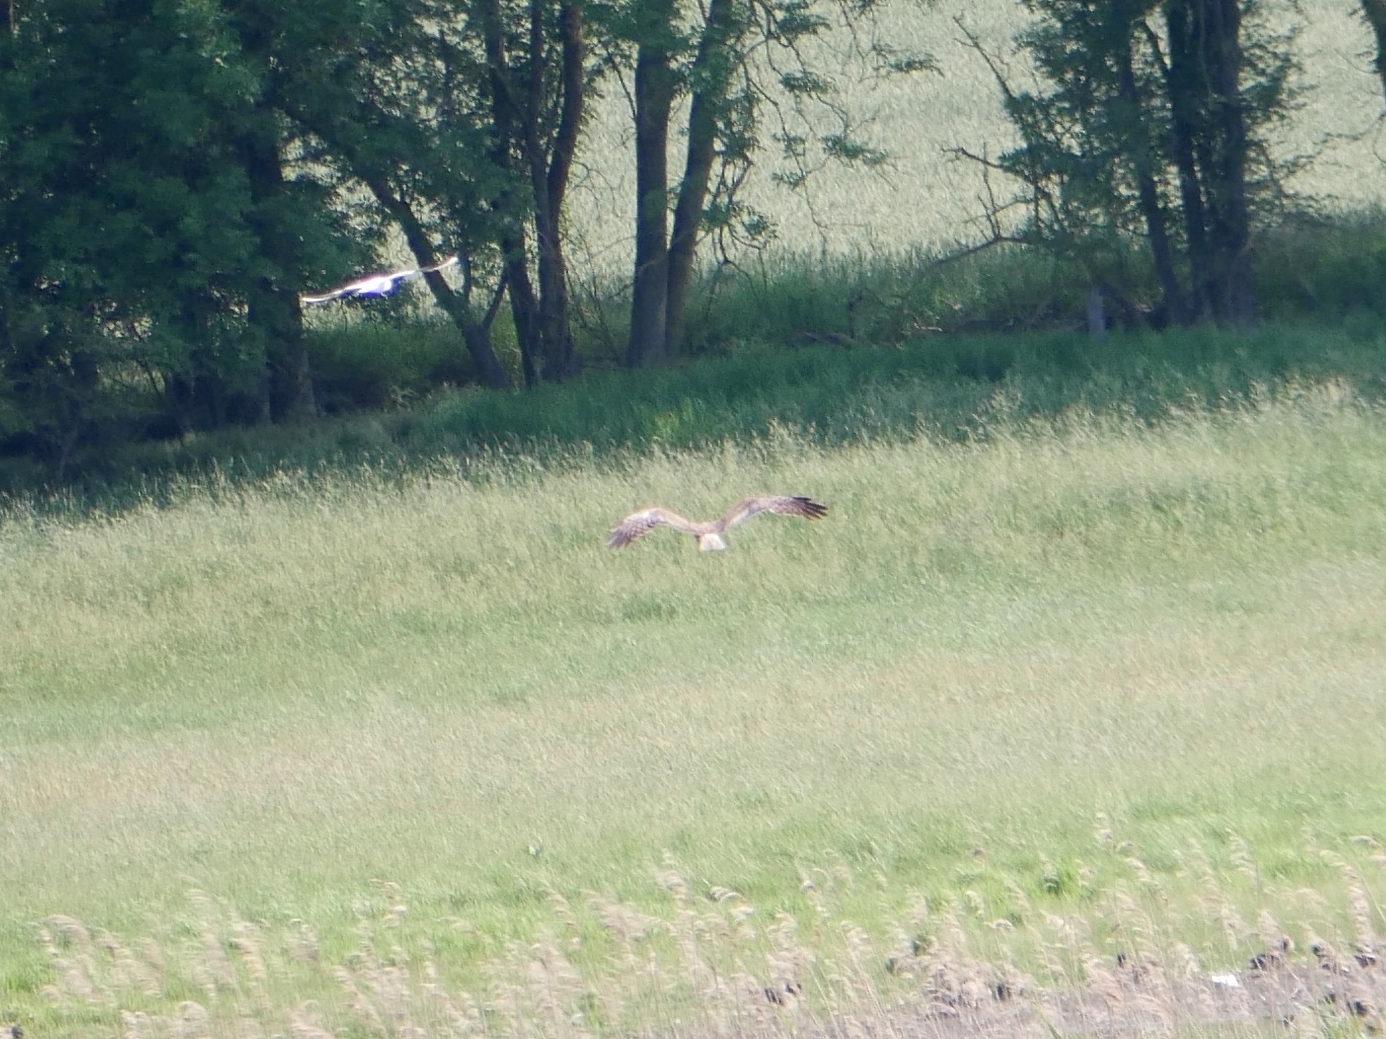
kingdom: Animalia
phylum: Chordata
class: Aves
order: Accipitriformes
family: Accipitridae
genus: Circus
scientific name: Circus aeruginosus
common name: Western marsh harrier
